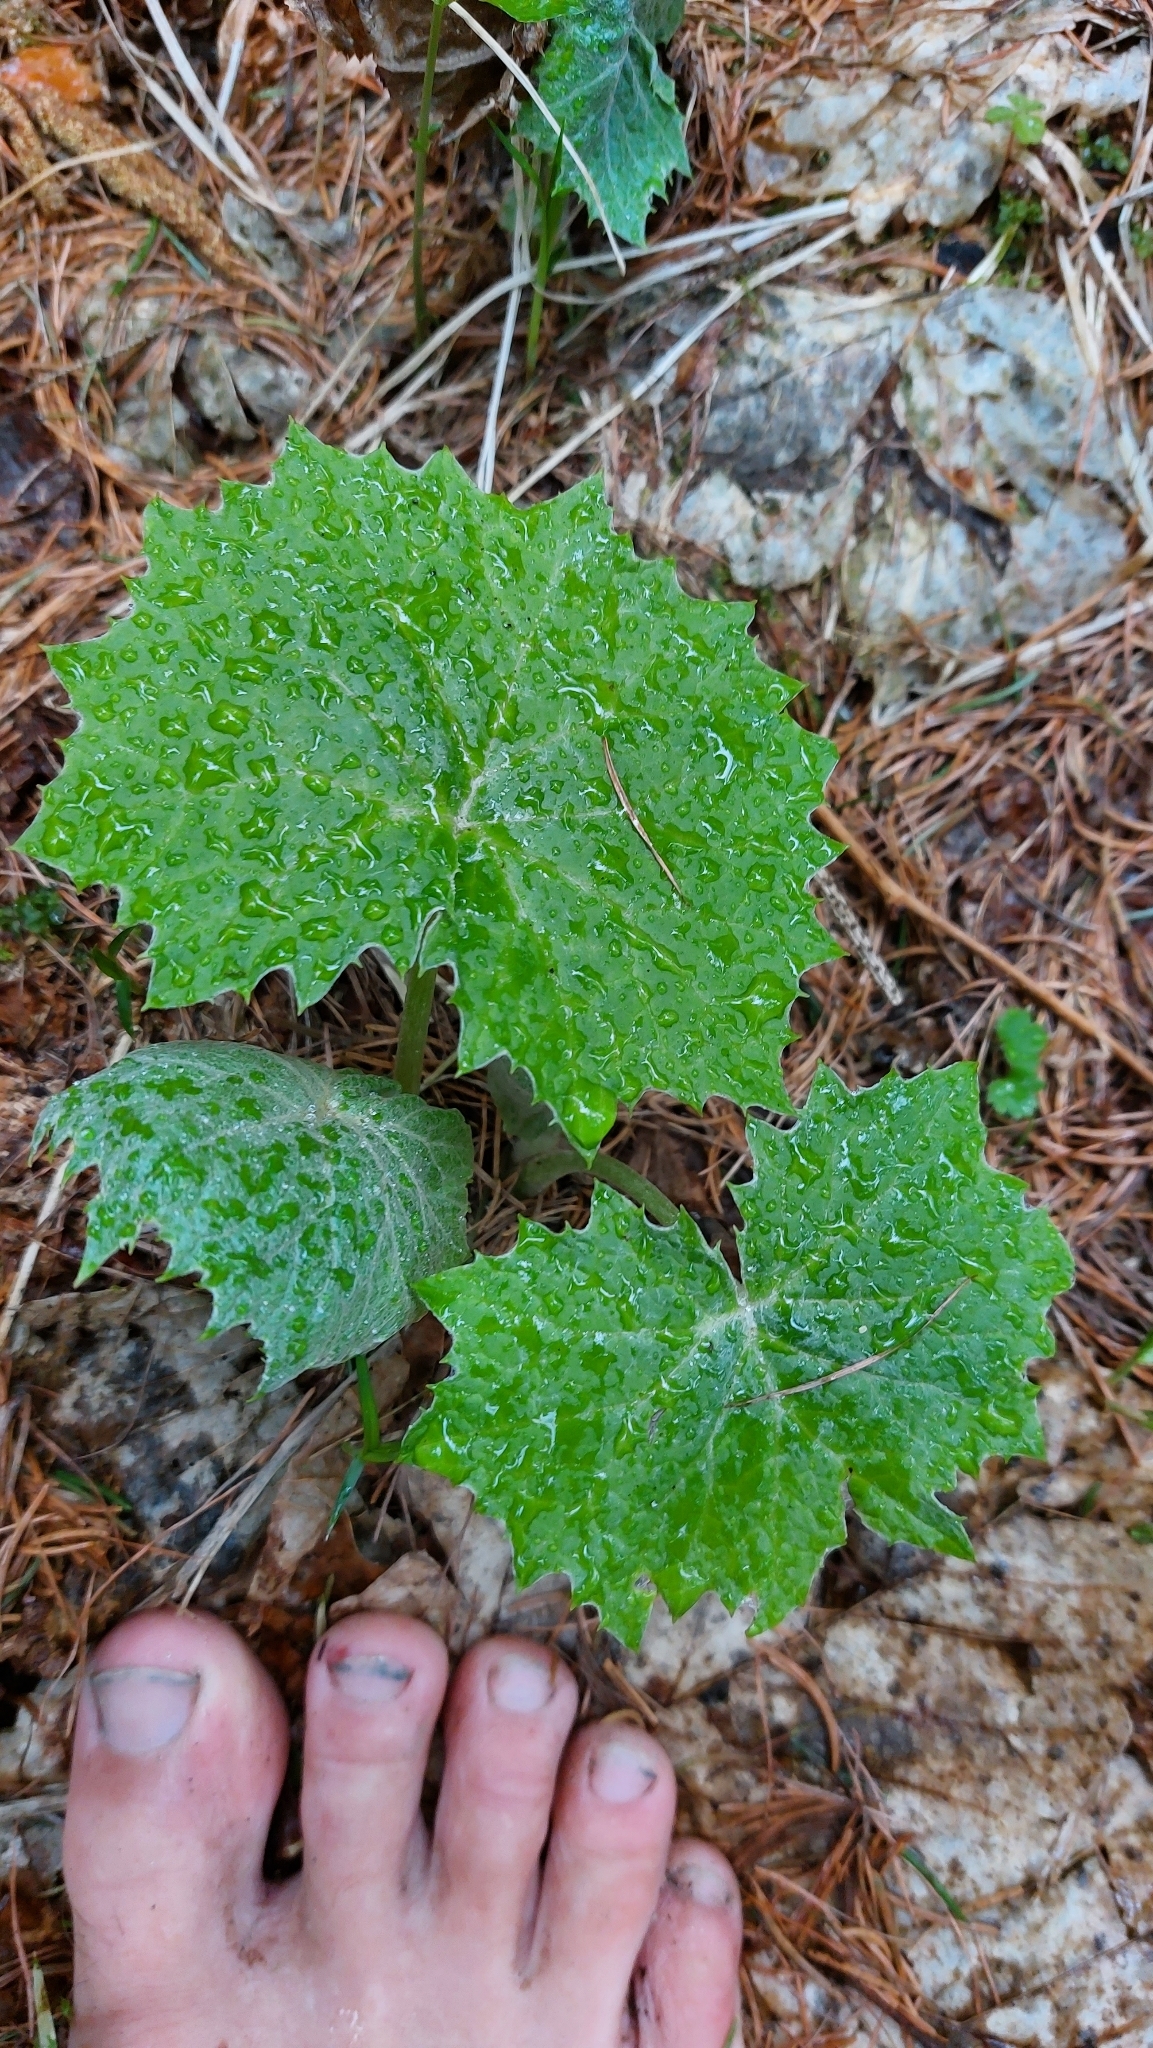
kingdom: Plantae
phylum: Tracheophyta
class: Magnoliopsida
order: Asterales
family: Asteraceae
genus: Petasites
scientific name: Petasites albus
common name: White butterbur
